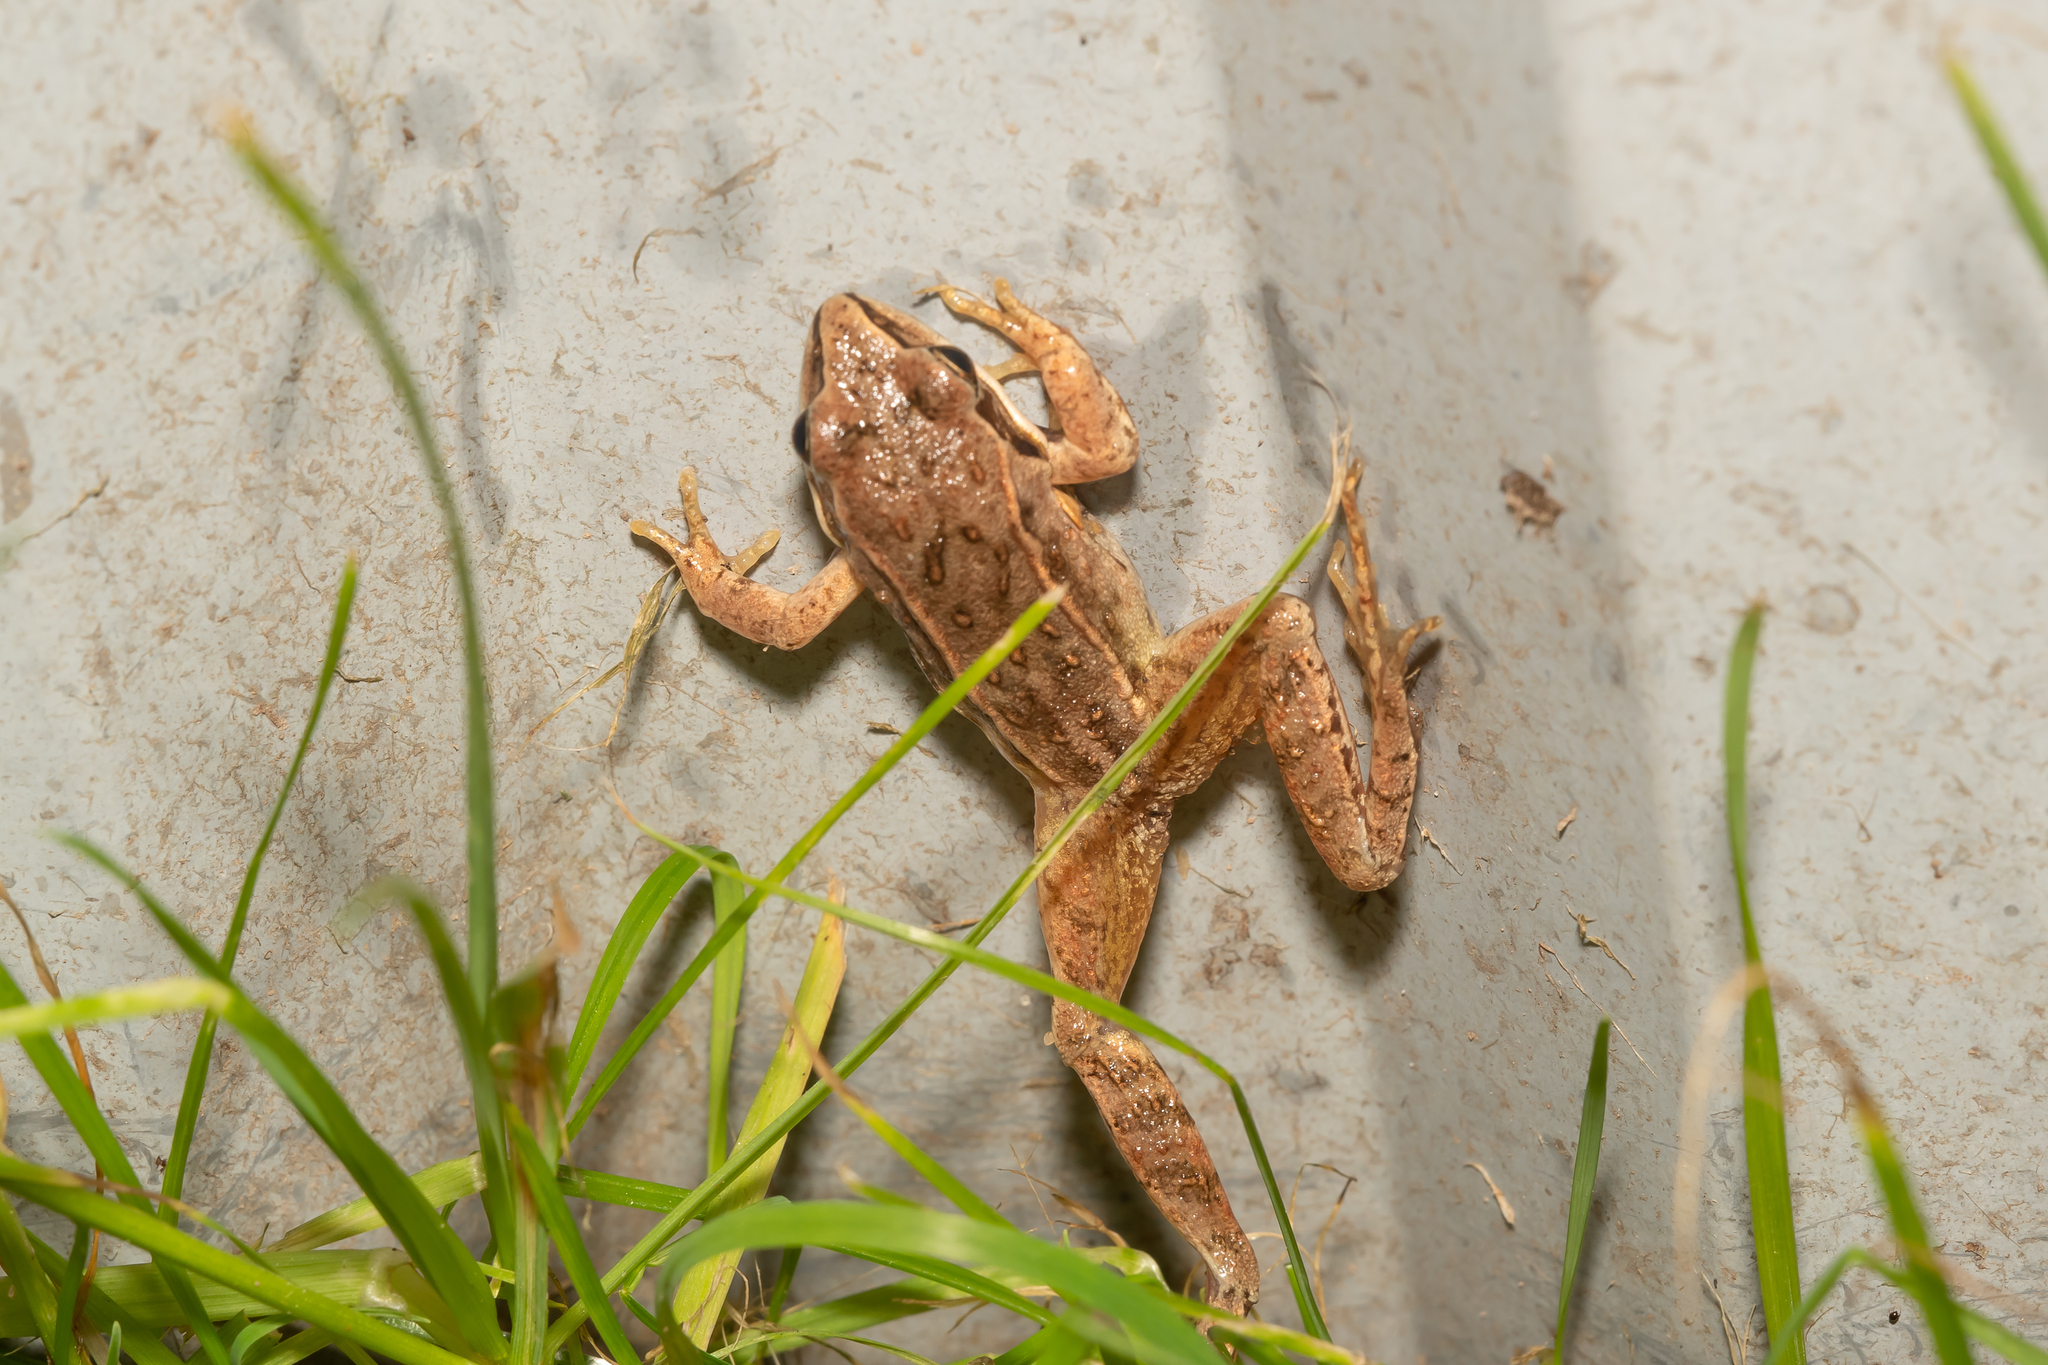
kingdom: Animalia
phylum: Chordata
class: Amphibia
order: Anura
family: Ranidae
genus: Rana
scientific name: Rana arvalis
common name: Moor frog
